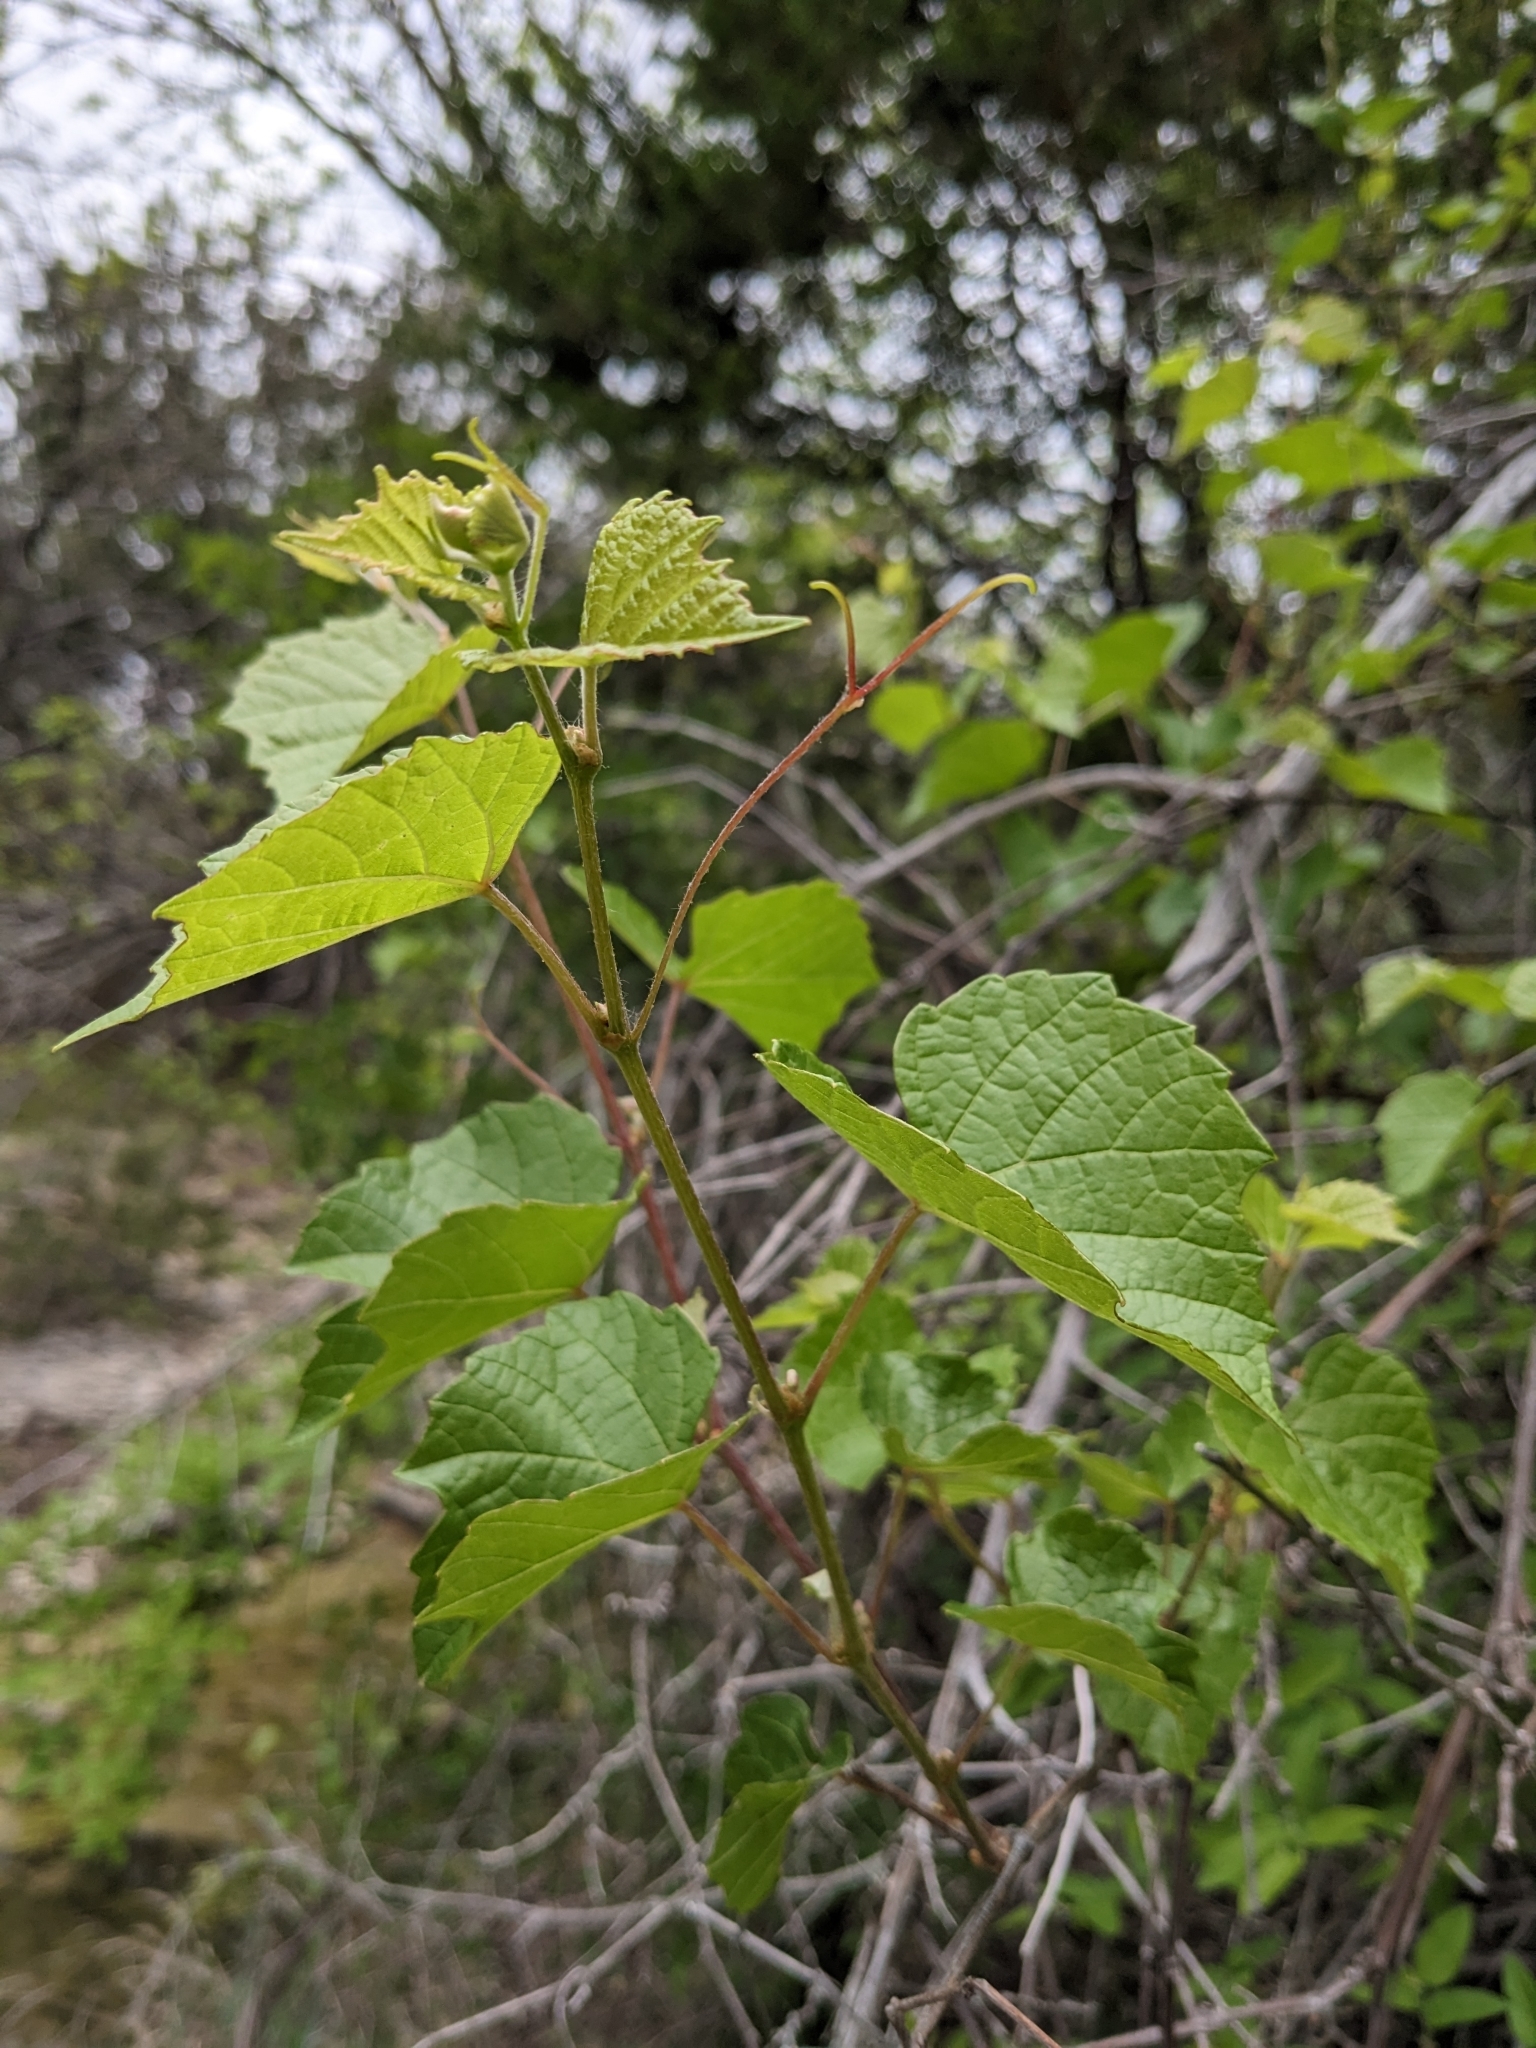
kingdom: Plantae
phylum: Tracheophyta
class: Magnoliopsida
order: Vitales
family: Vitaceae
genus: Vitis
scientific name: Vitis champinii
